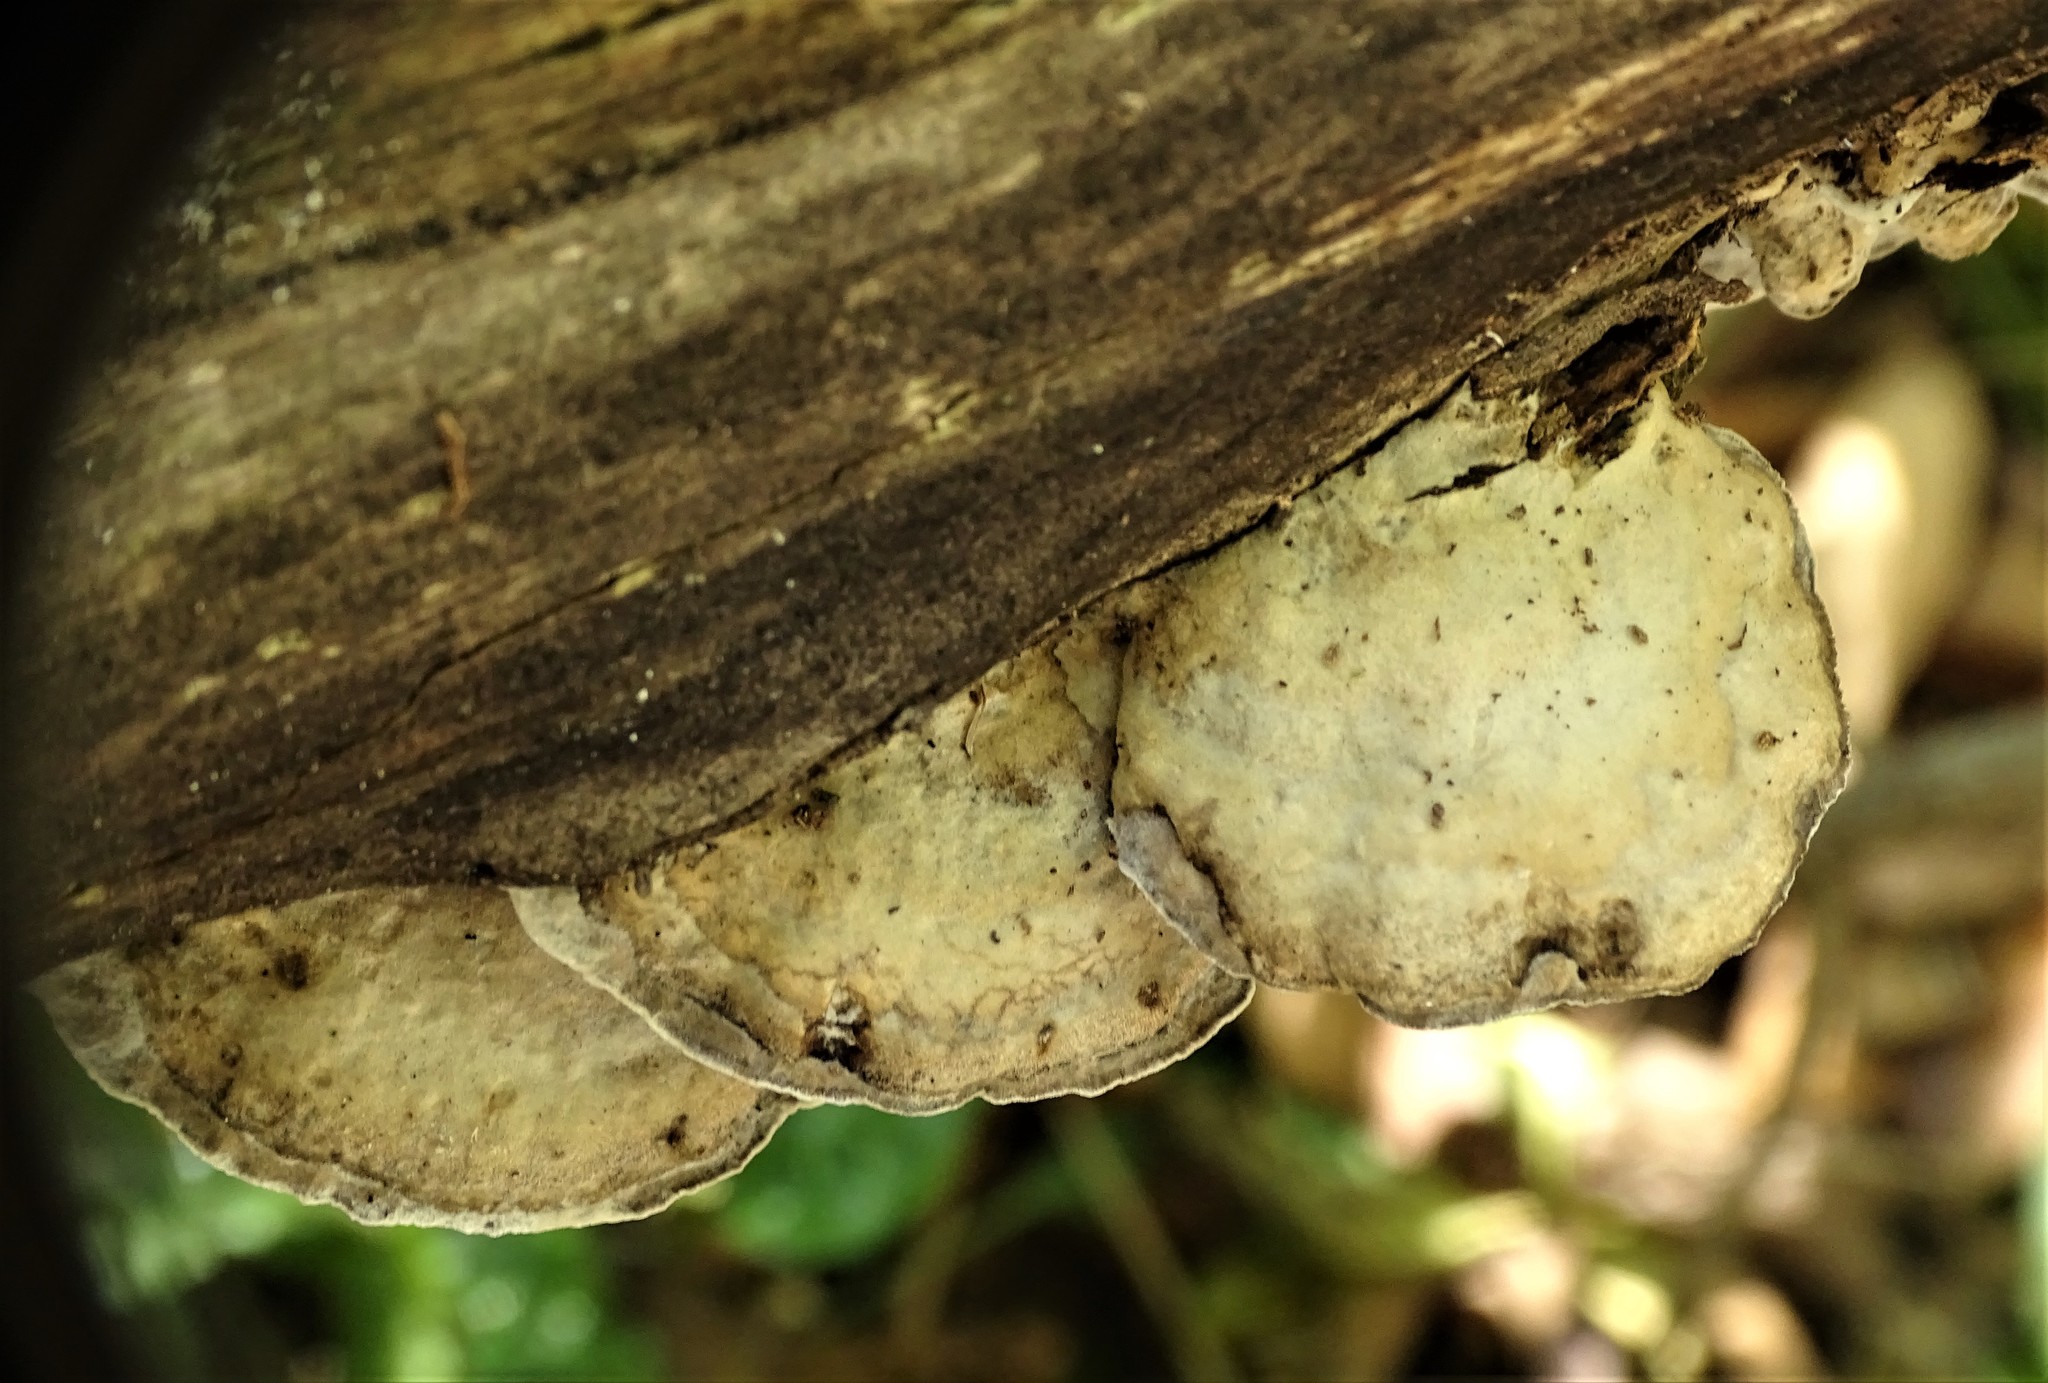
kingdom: Fungi
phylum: Basidiomycota
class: Agaricomycetes
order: Polyporales
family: Phanerochaetaceae
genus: Bjerkandera
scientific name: Bjerkandera adusta
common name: Smoky bracket
